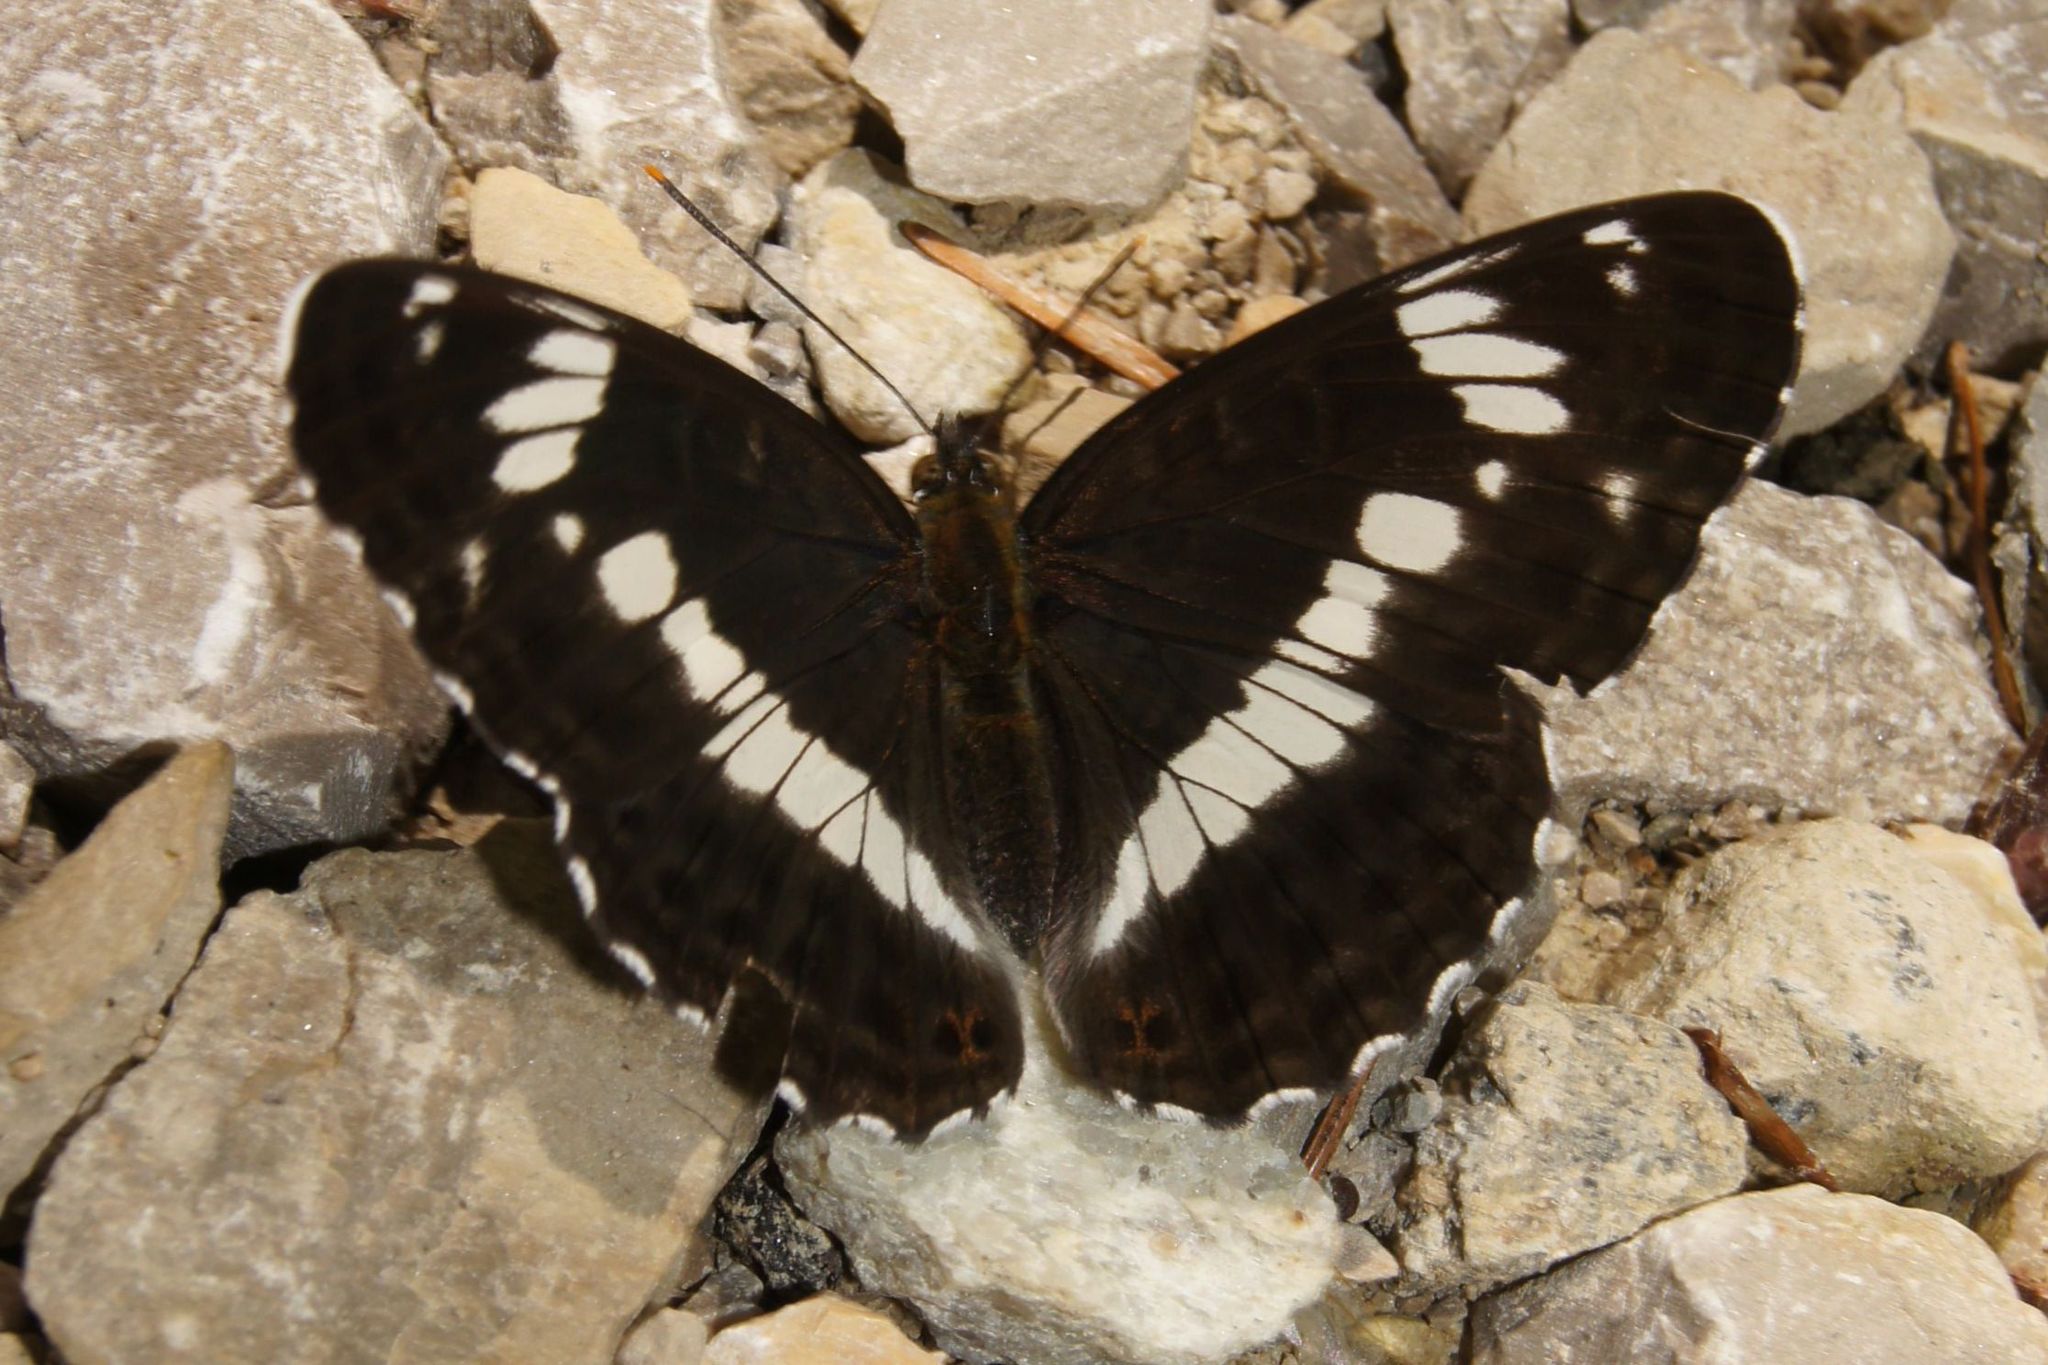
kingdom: Animalia
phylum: Arthropoda
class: Insecta
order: Lepidoptera
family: Nymphalidae
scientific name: Nymphalidae
